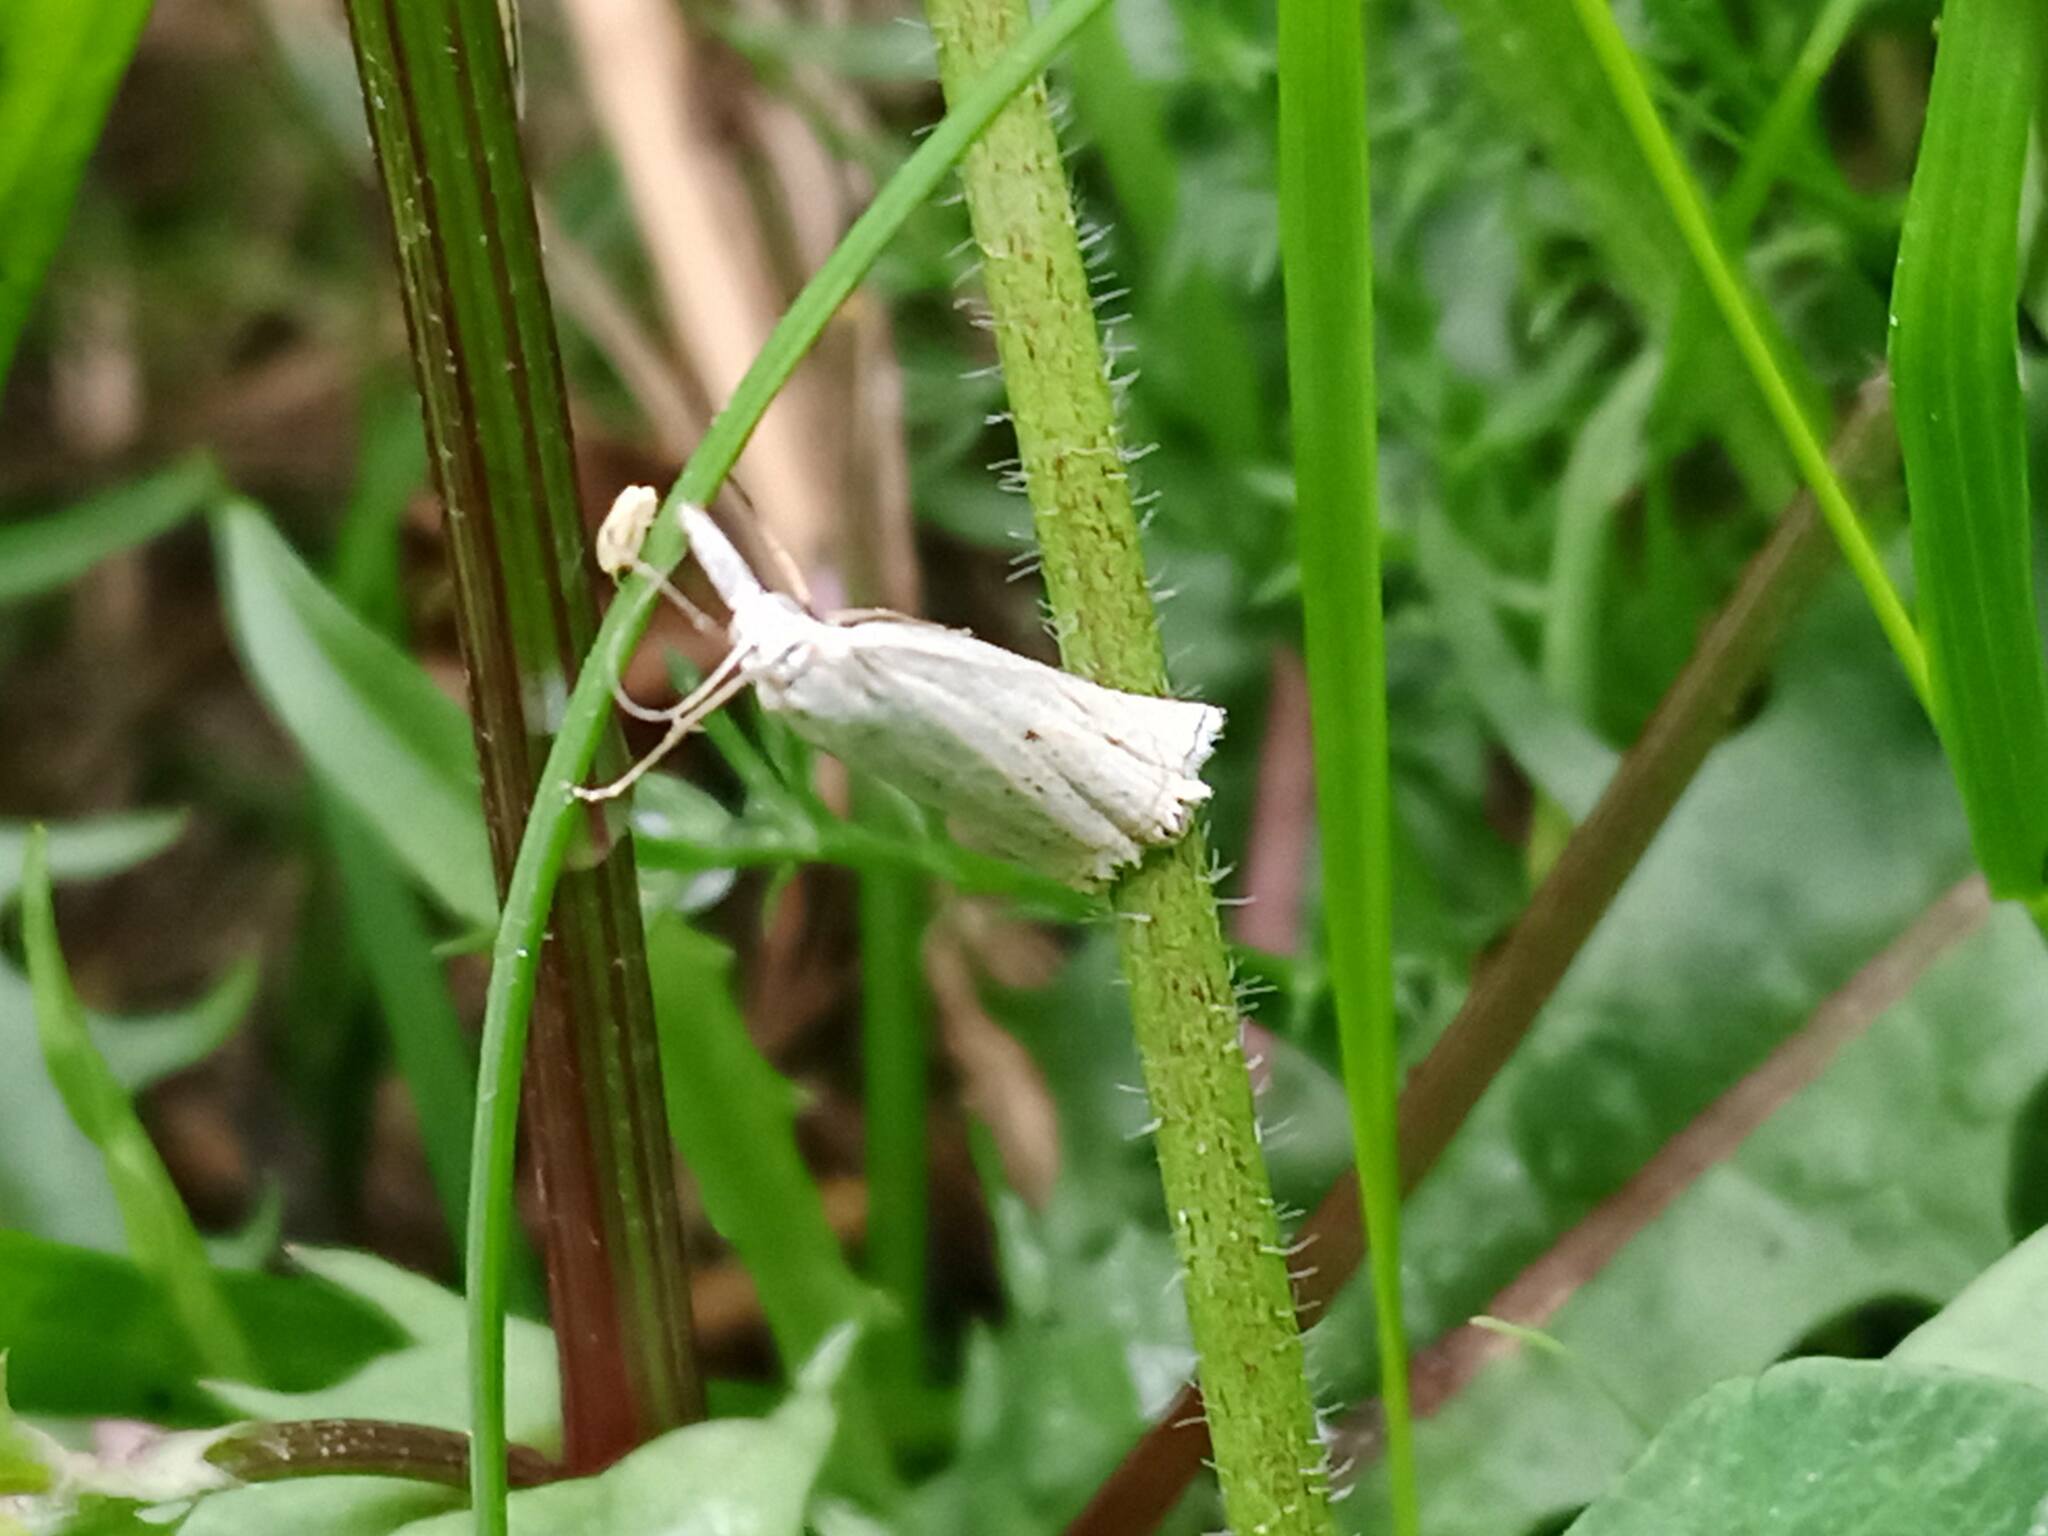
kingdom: Animalia
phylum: Arthropoda
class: Insecta
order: Lepidoptera
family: Crambidae
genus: Crambus
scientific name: Crambus nemorella
